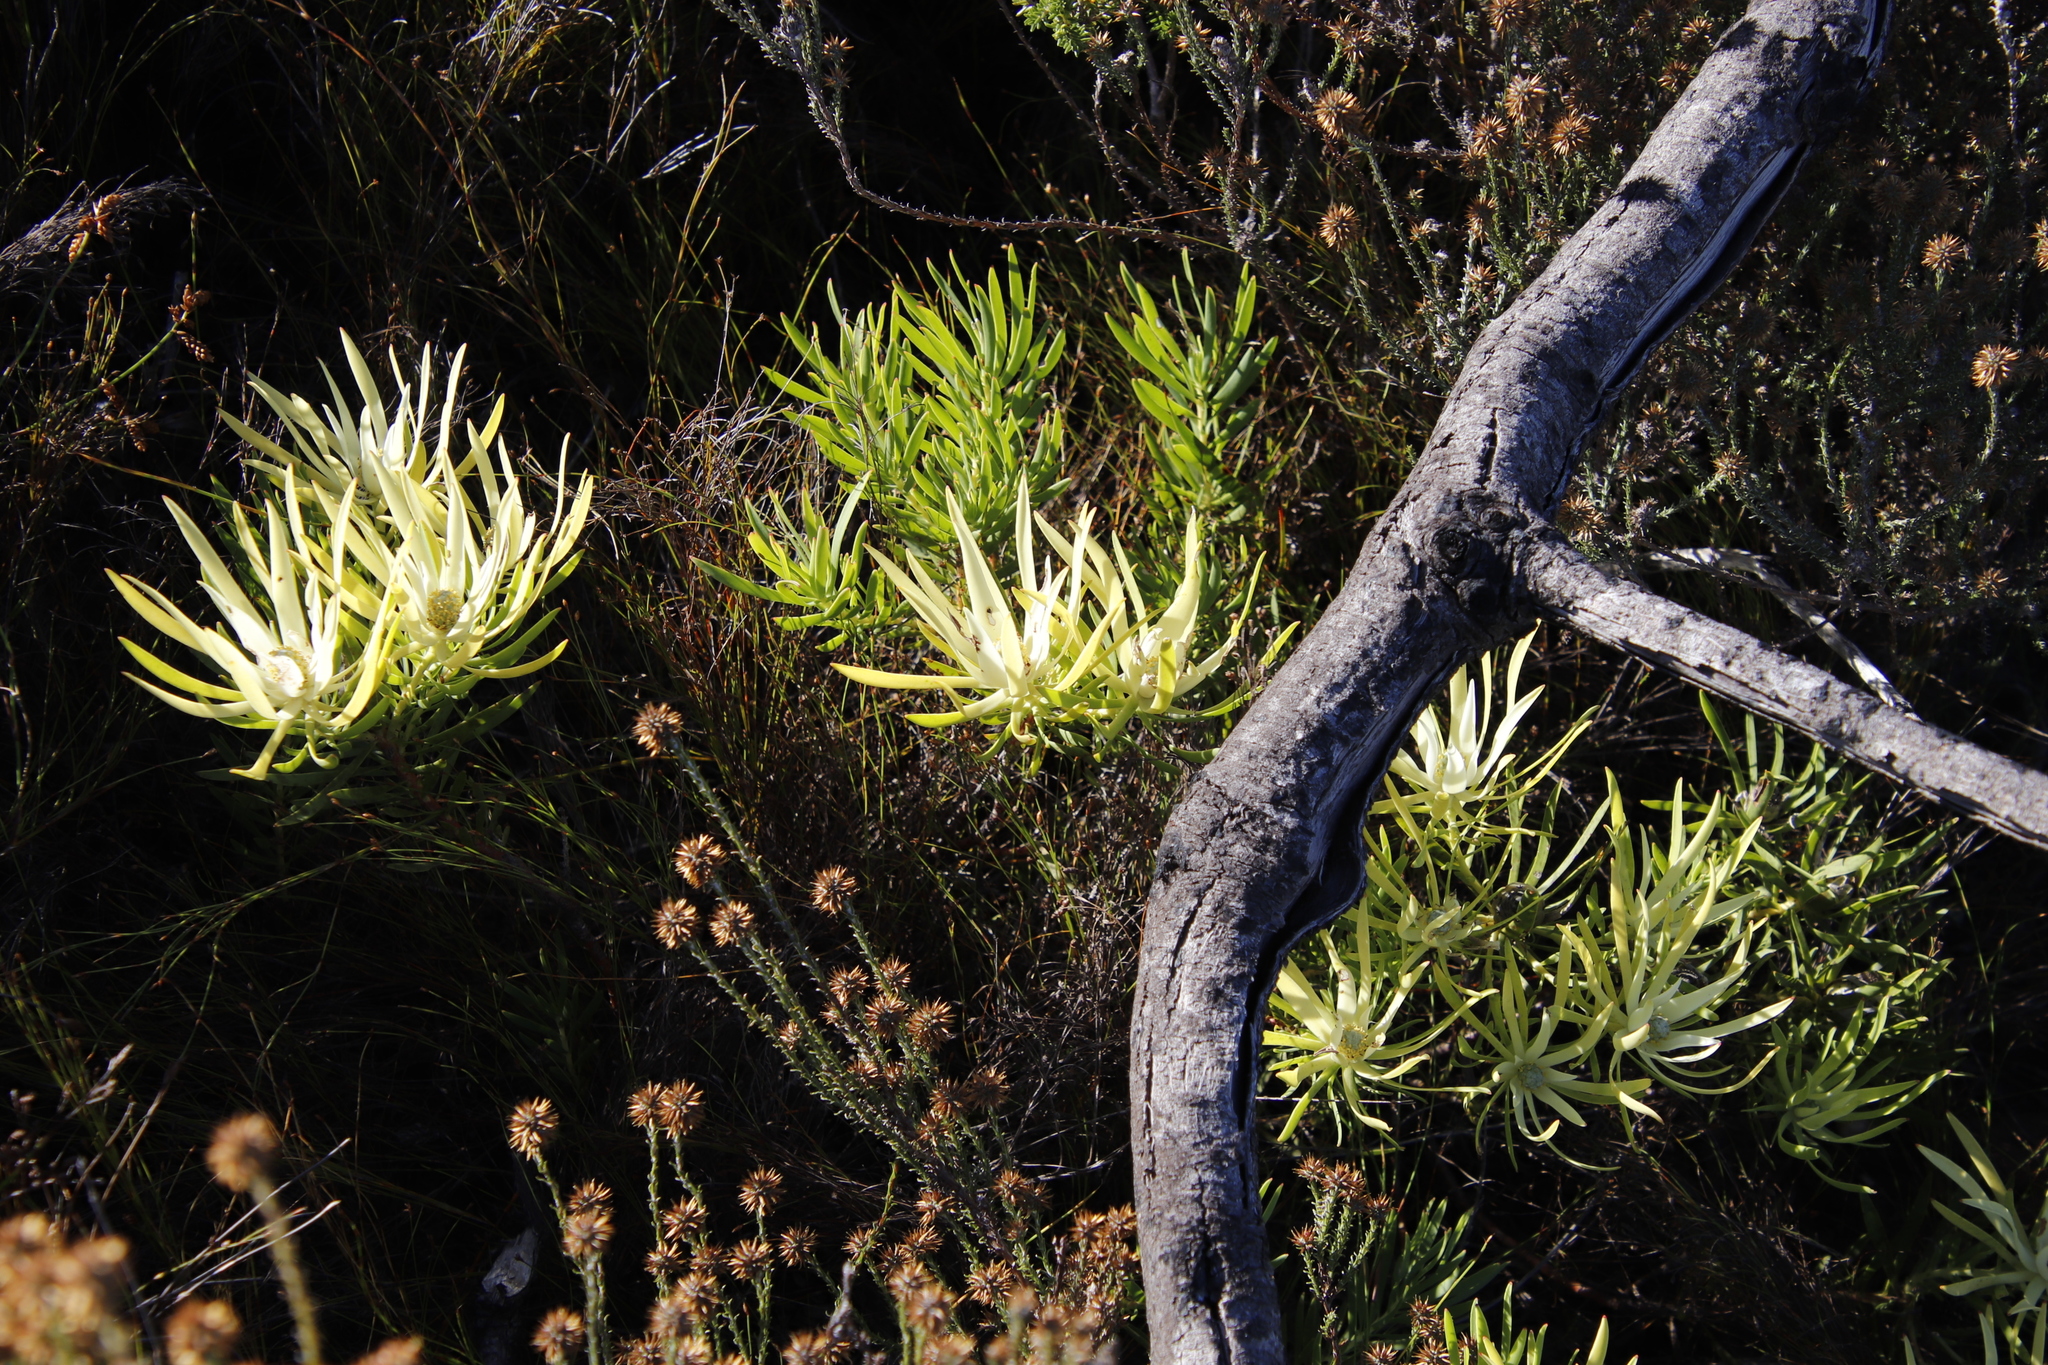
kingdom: Plantae
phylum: Tracheophyta
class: Magnoliopsida
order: Proteales
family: Proteaceae
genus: Leucadendron
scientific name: Leucadendron salignum
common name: Common sunshine conebush
